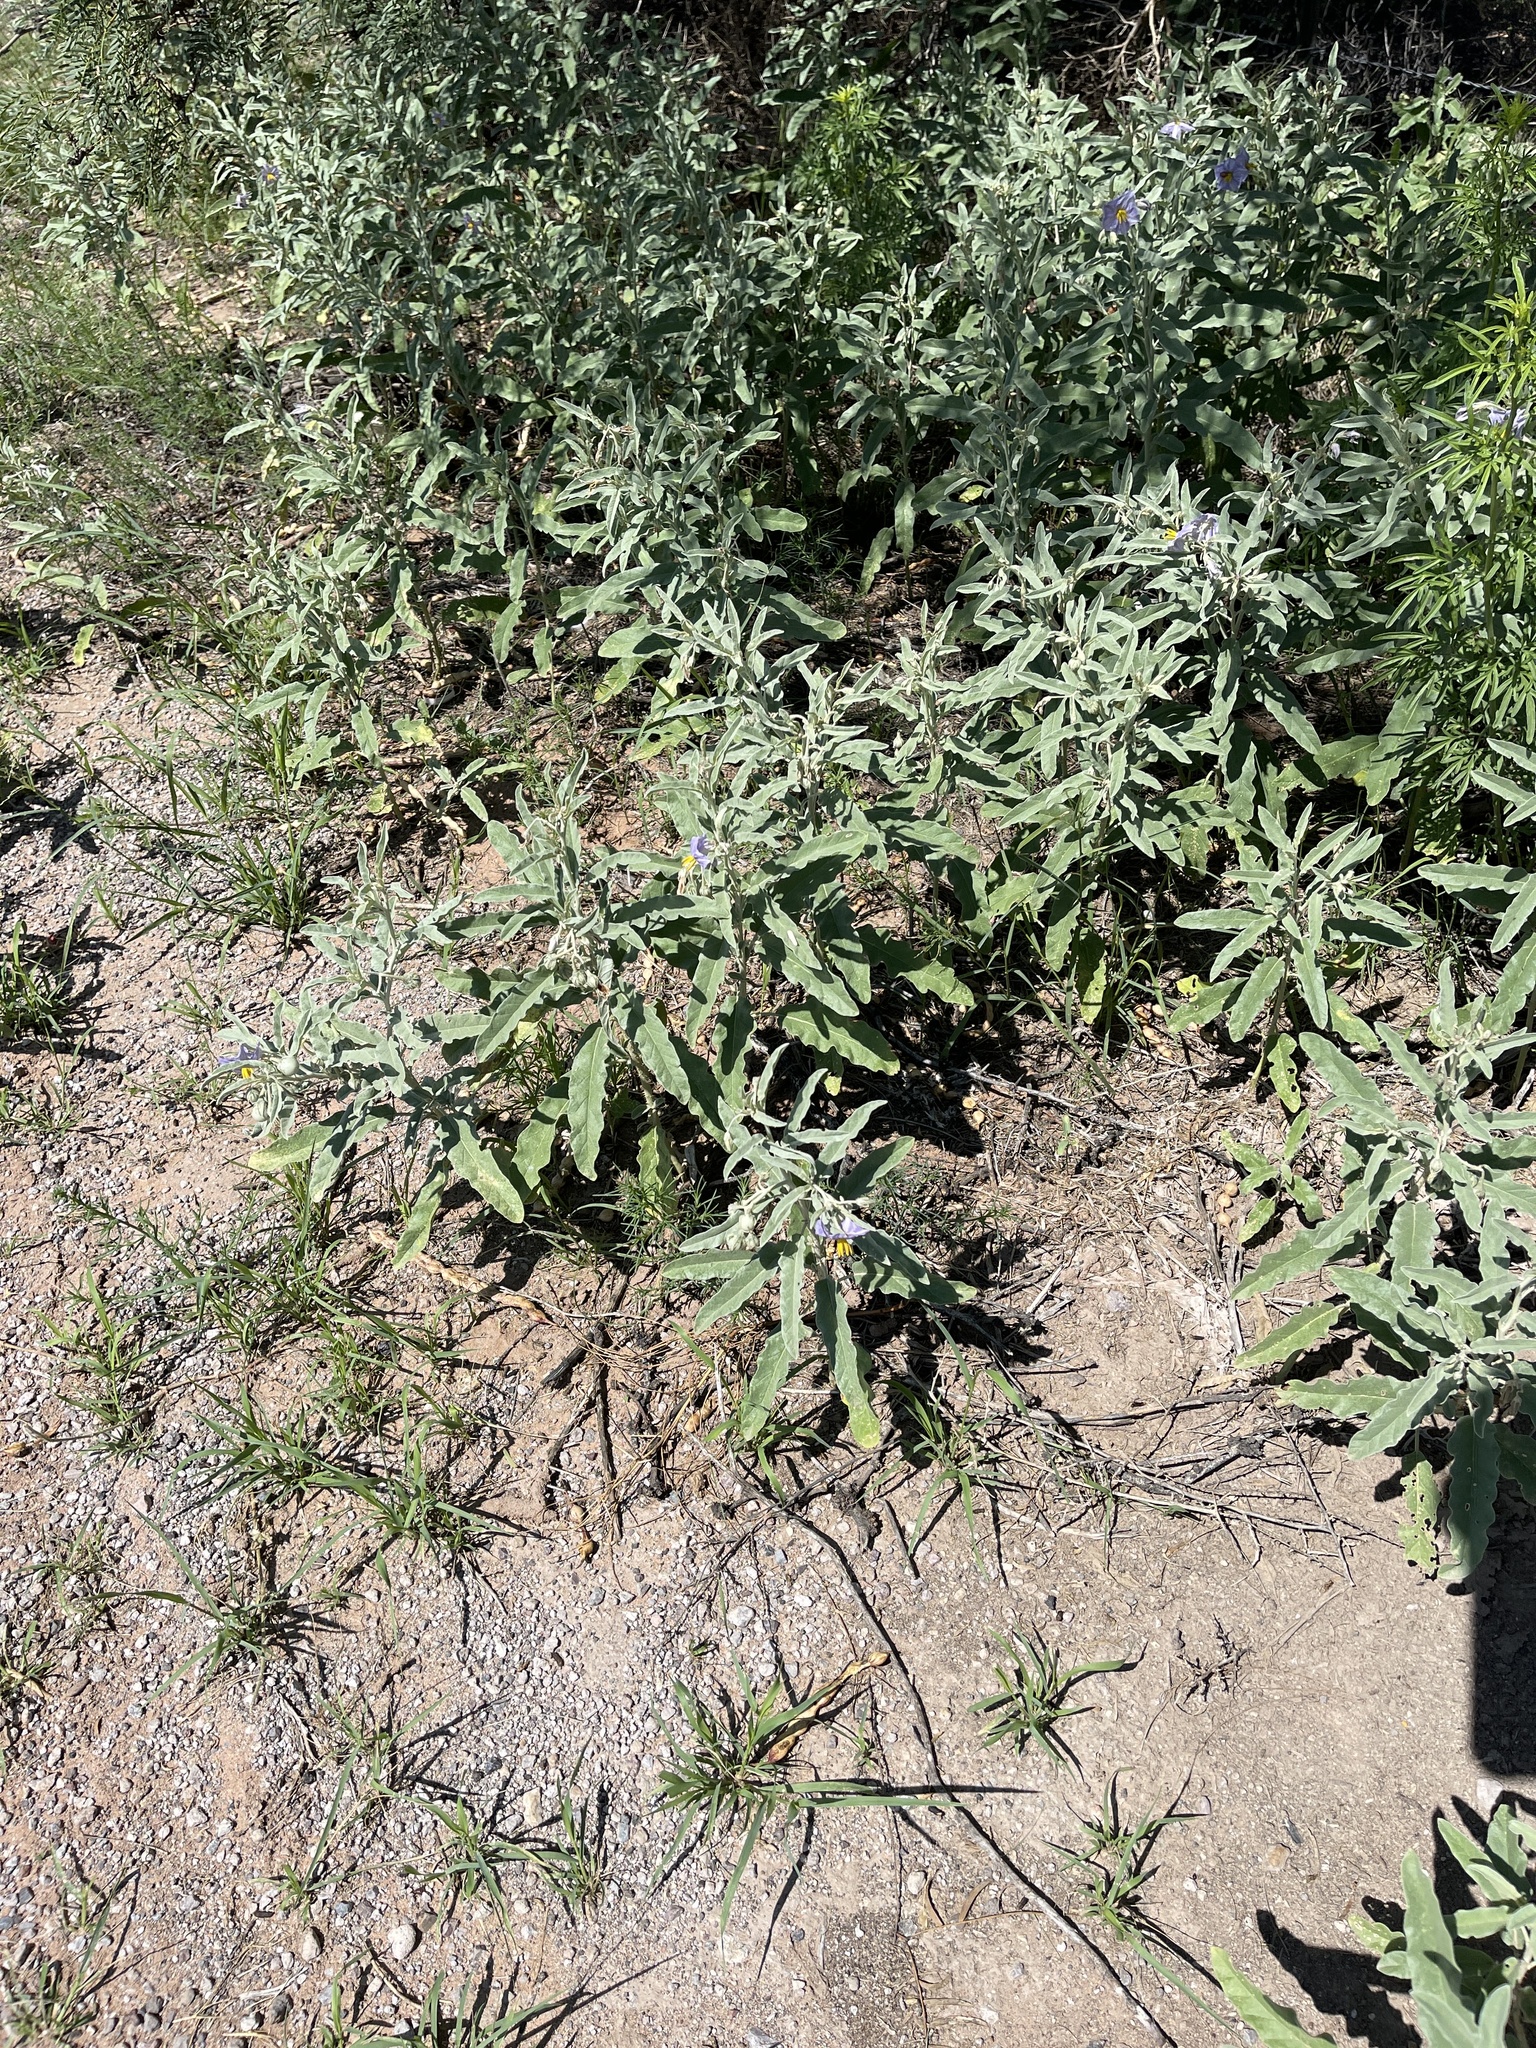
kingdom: Plantae
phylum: Tracheophyta
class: Magnoliopsida
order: Solanales
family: Solanaceae
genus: Solanum
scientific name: Solanum elaeagnifolium
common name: Silverleaf nightshade
